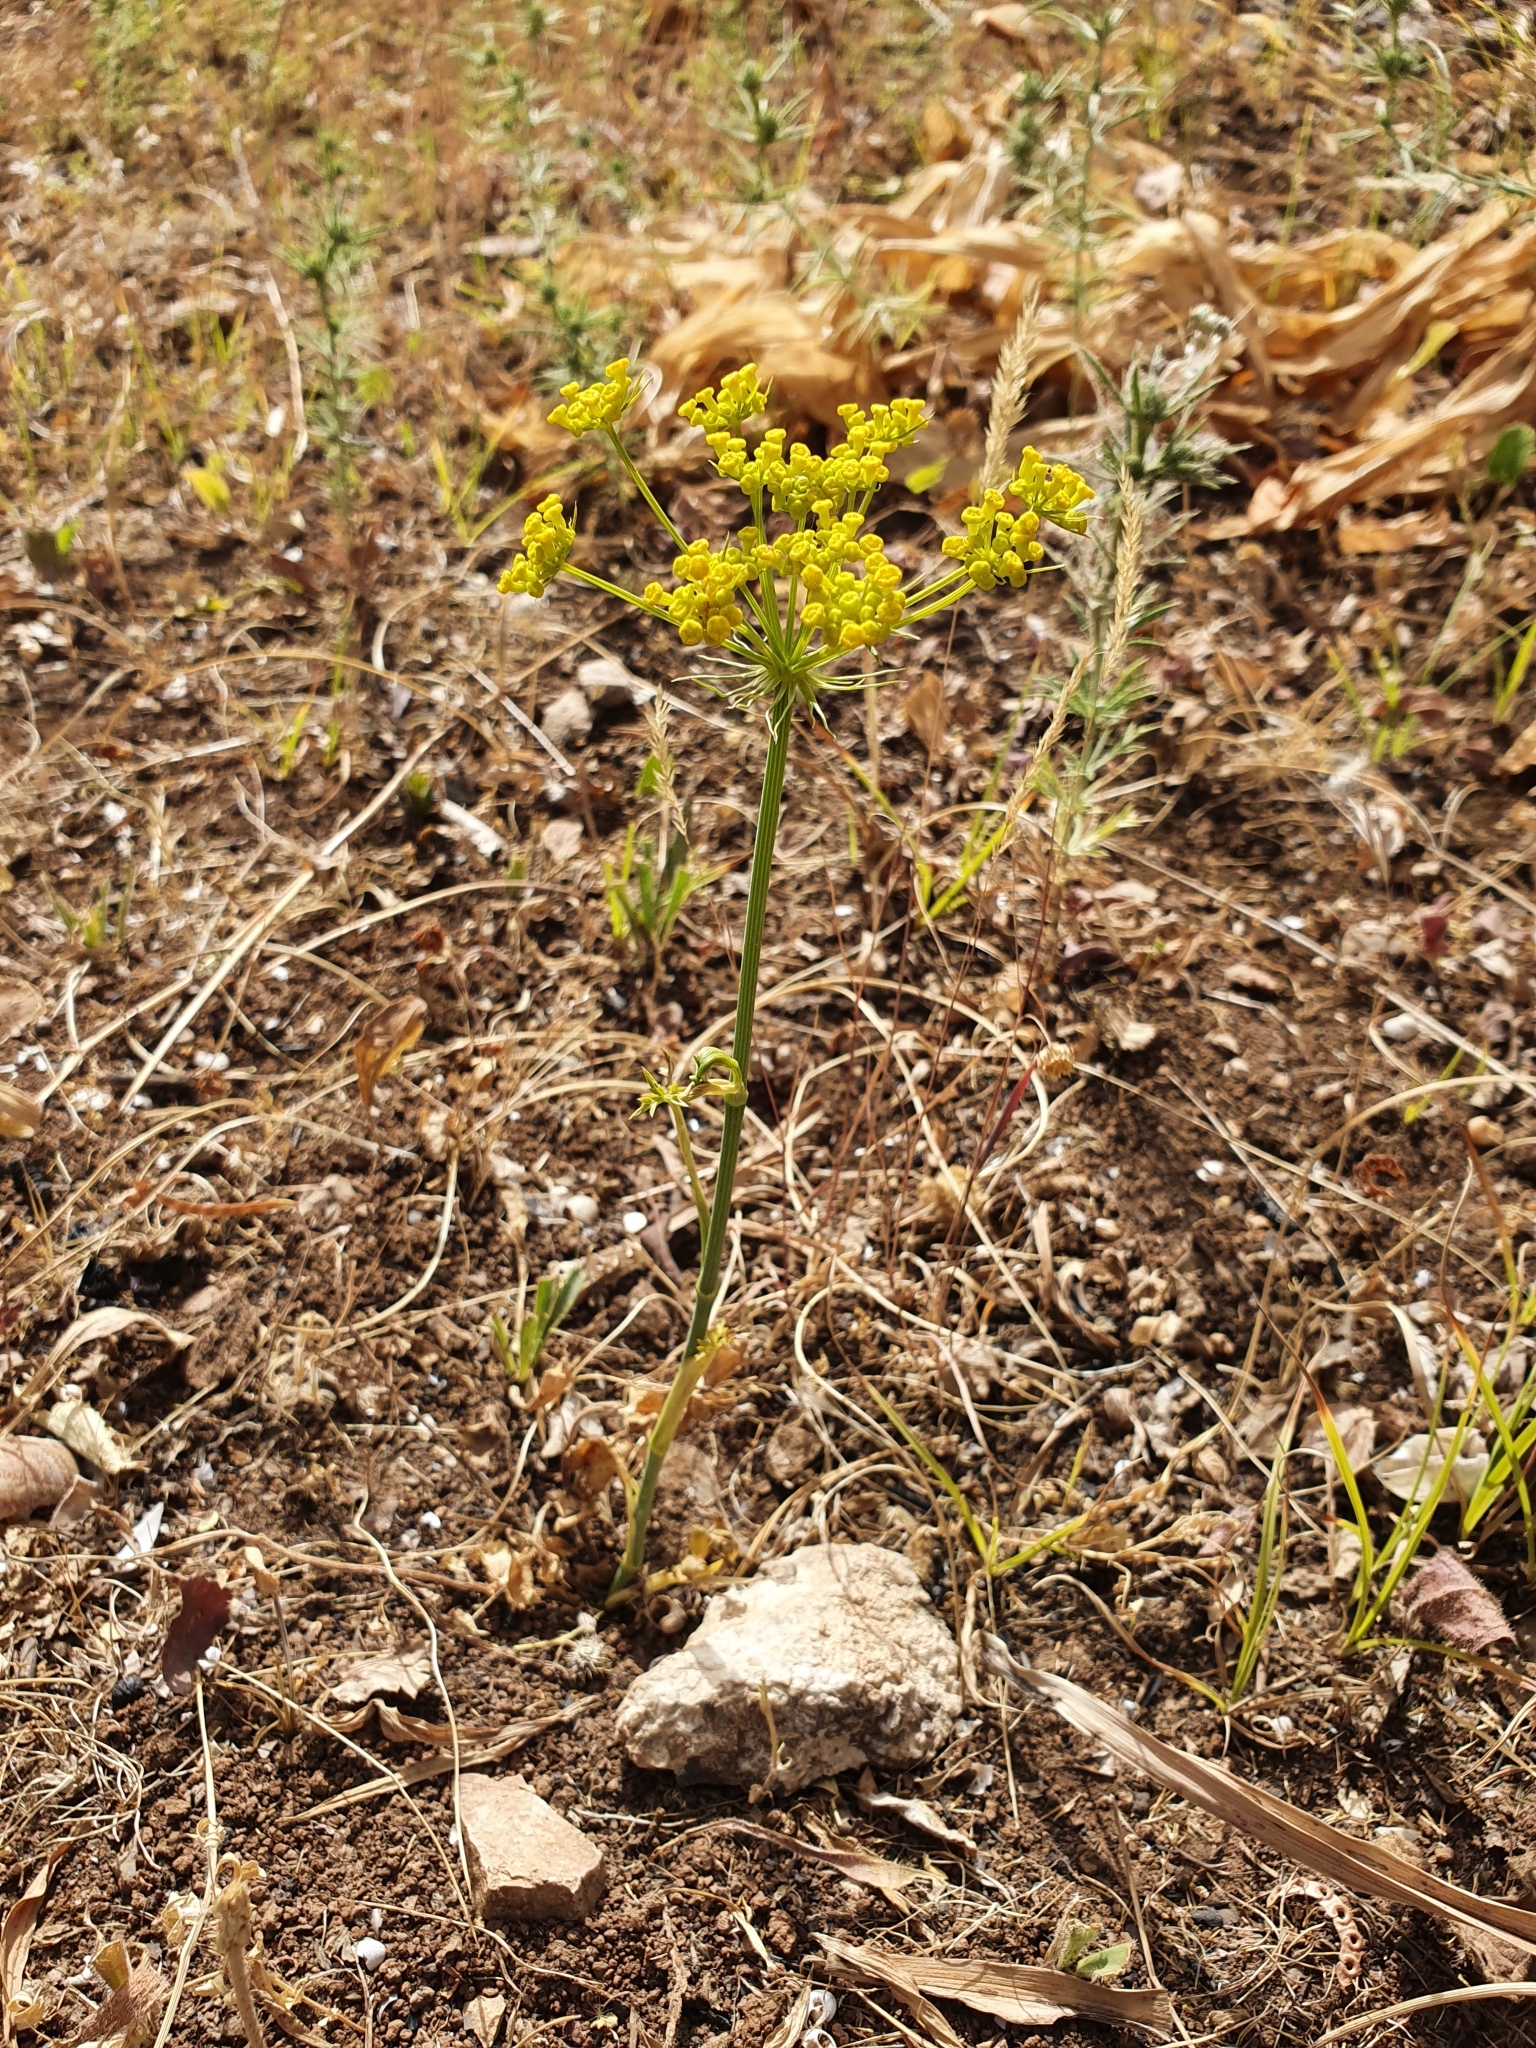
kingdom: Plantae
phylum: Tracheophyta
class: Magnoliopsida
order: Apiales
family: Apiaceae
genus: Kundmannia
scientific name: Kundmannia sicula
